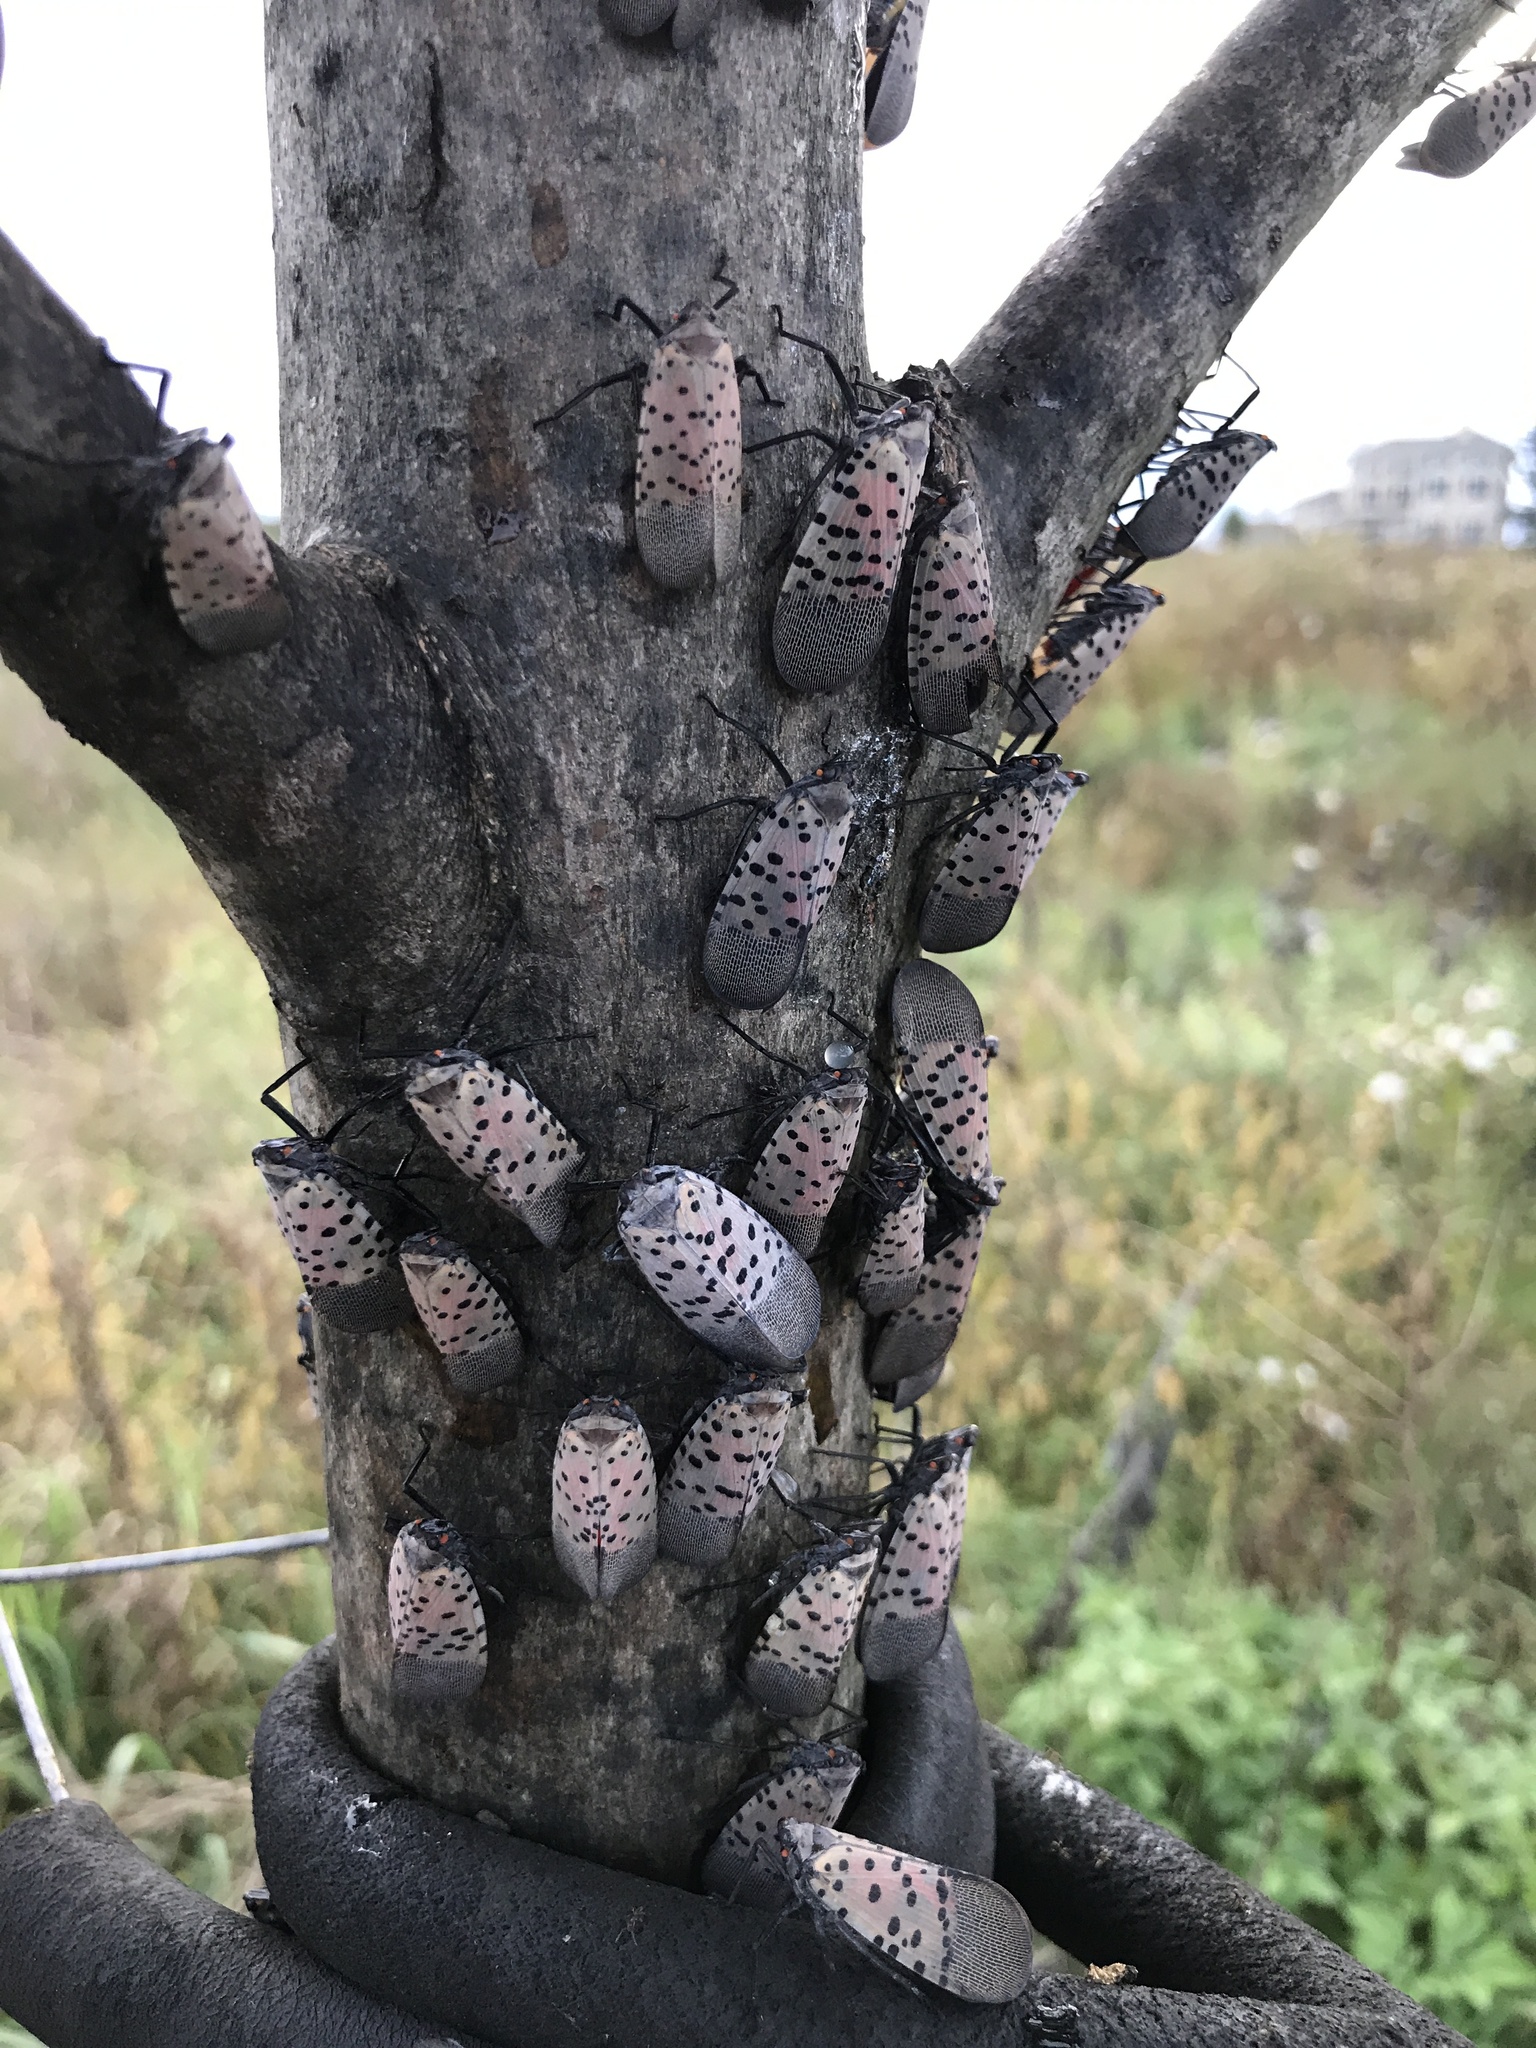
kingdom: Animalia
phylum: Arthropoda
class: Insecta
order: Hemiptera
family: Fulgoridae
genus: Lycorma
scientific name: Lycorma delicatula
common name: Spotted lanternfly
